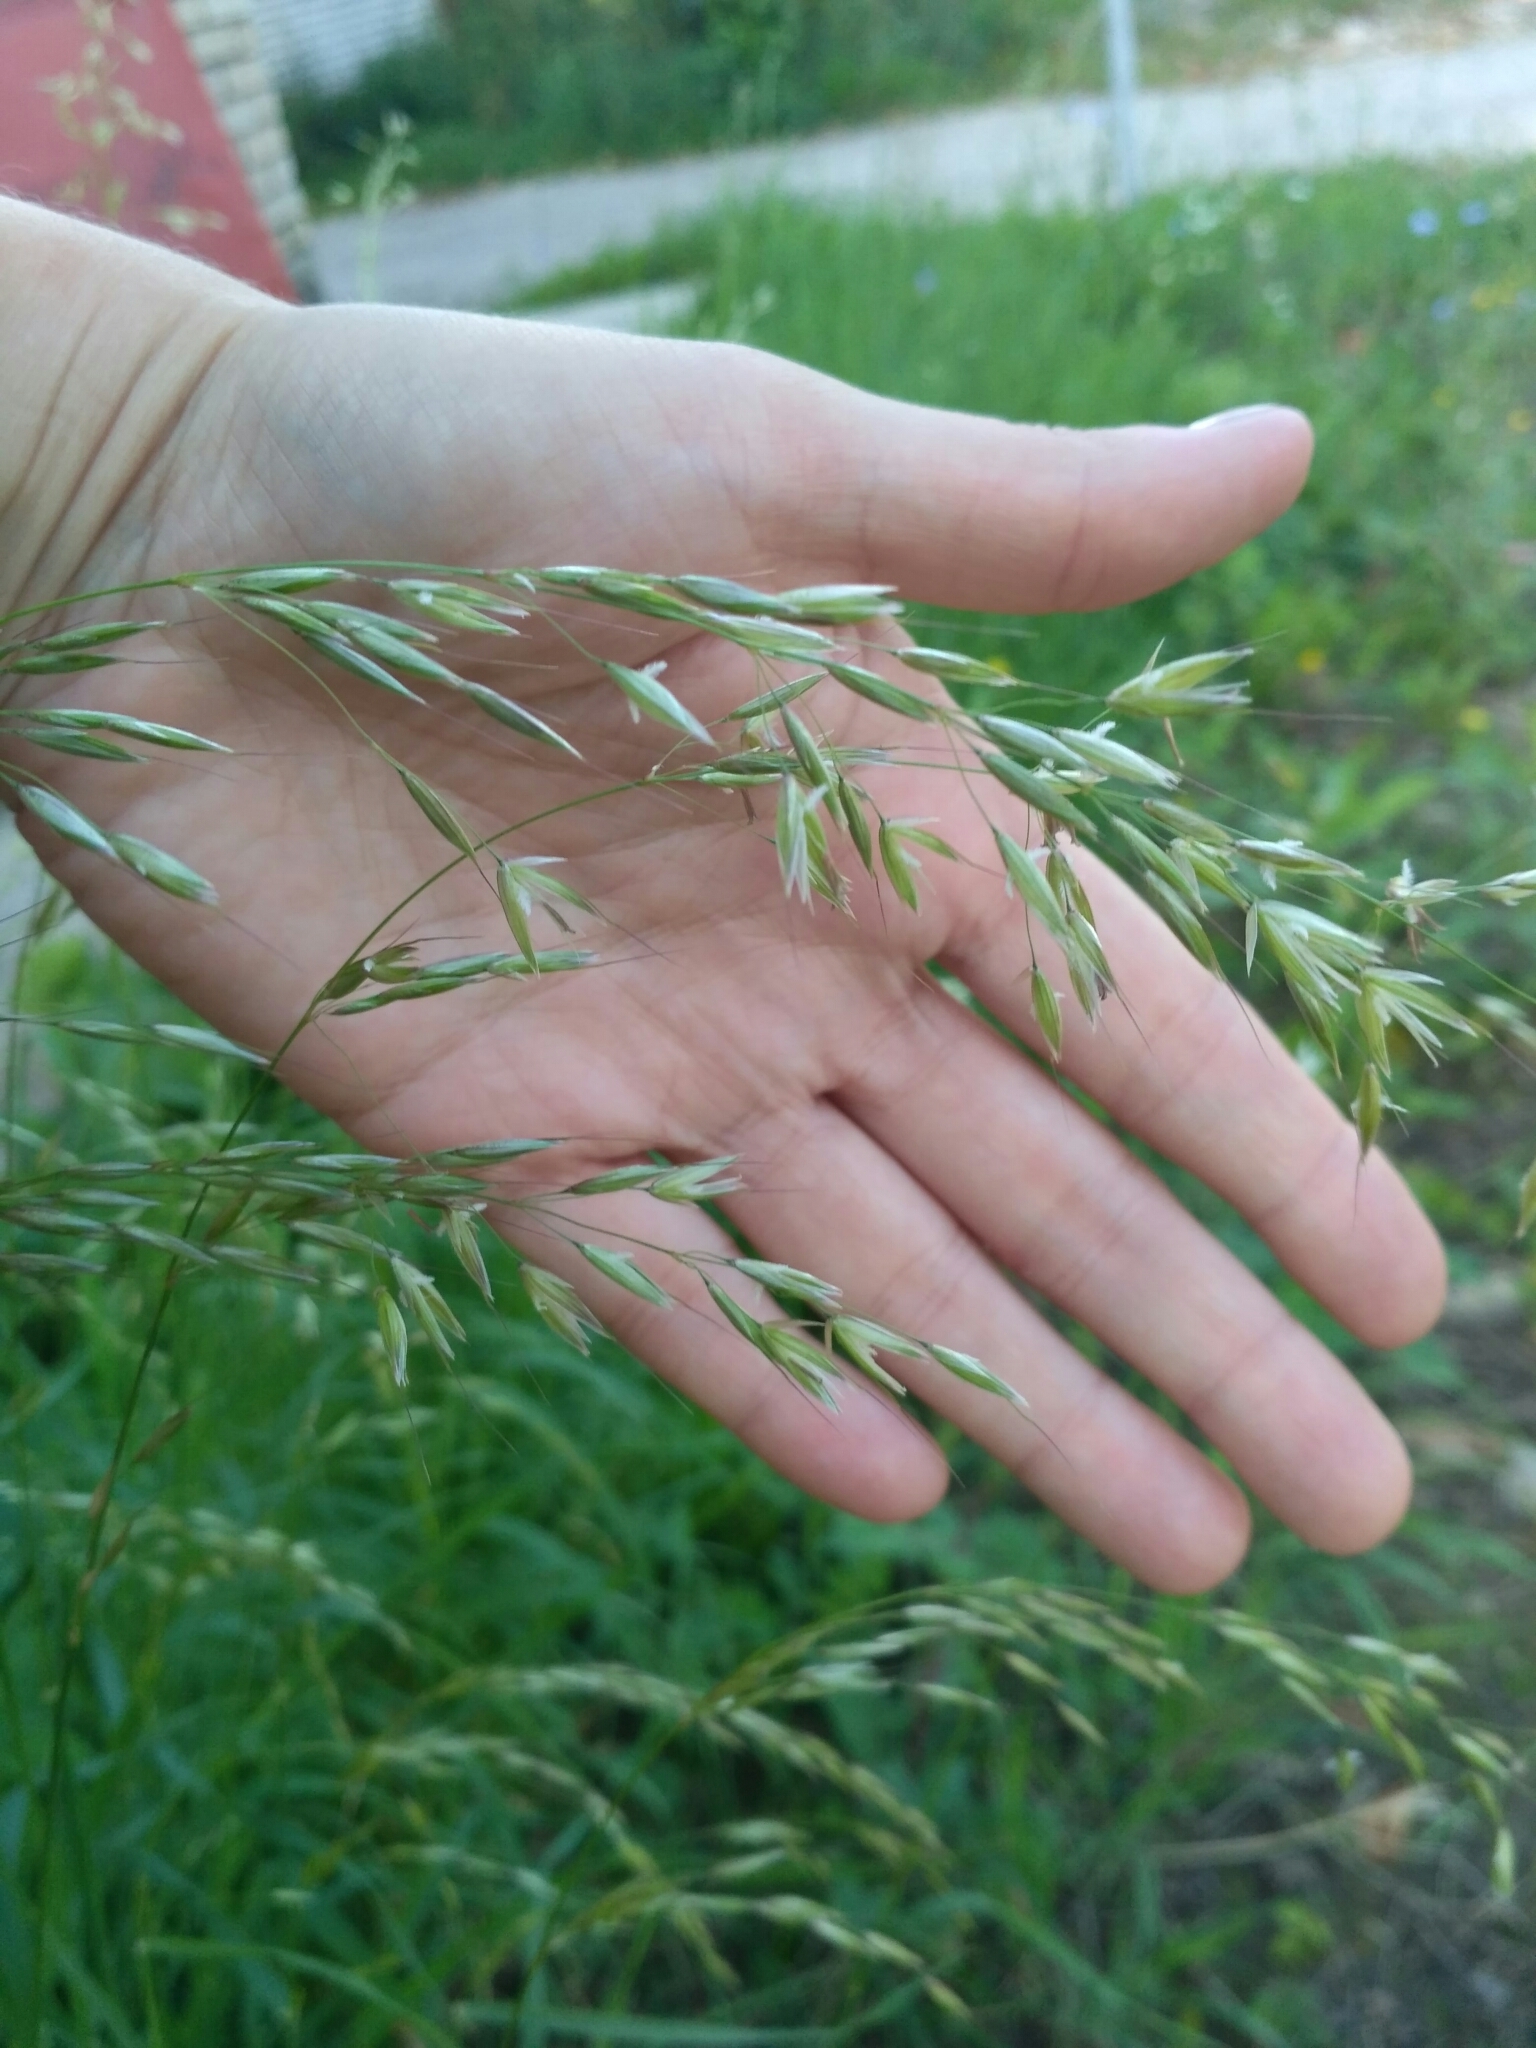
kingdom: Plantae
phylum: Tracheophyta
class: Liliopsida
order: Poales
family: Poaceae
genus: Arrhenatherum
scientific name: Arrhenatherum elatius
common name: Tall oatgrass
